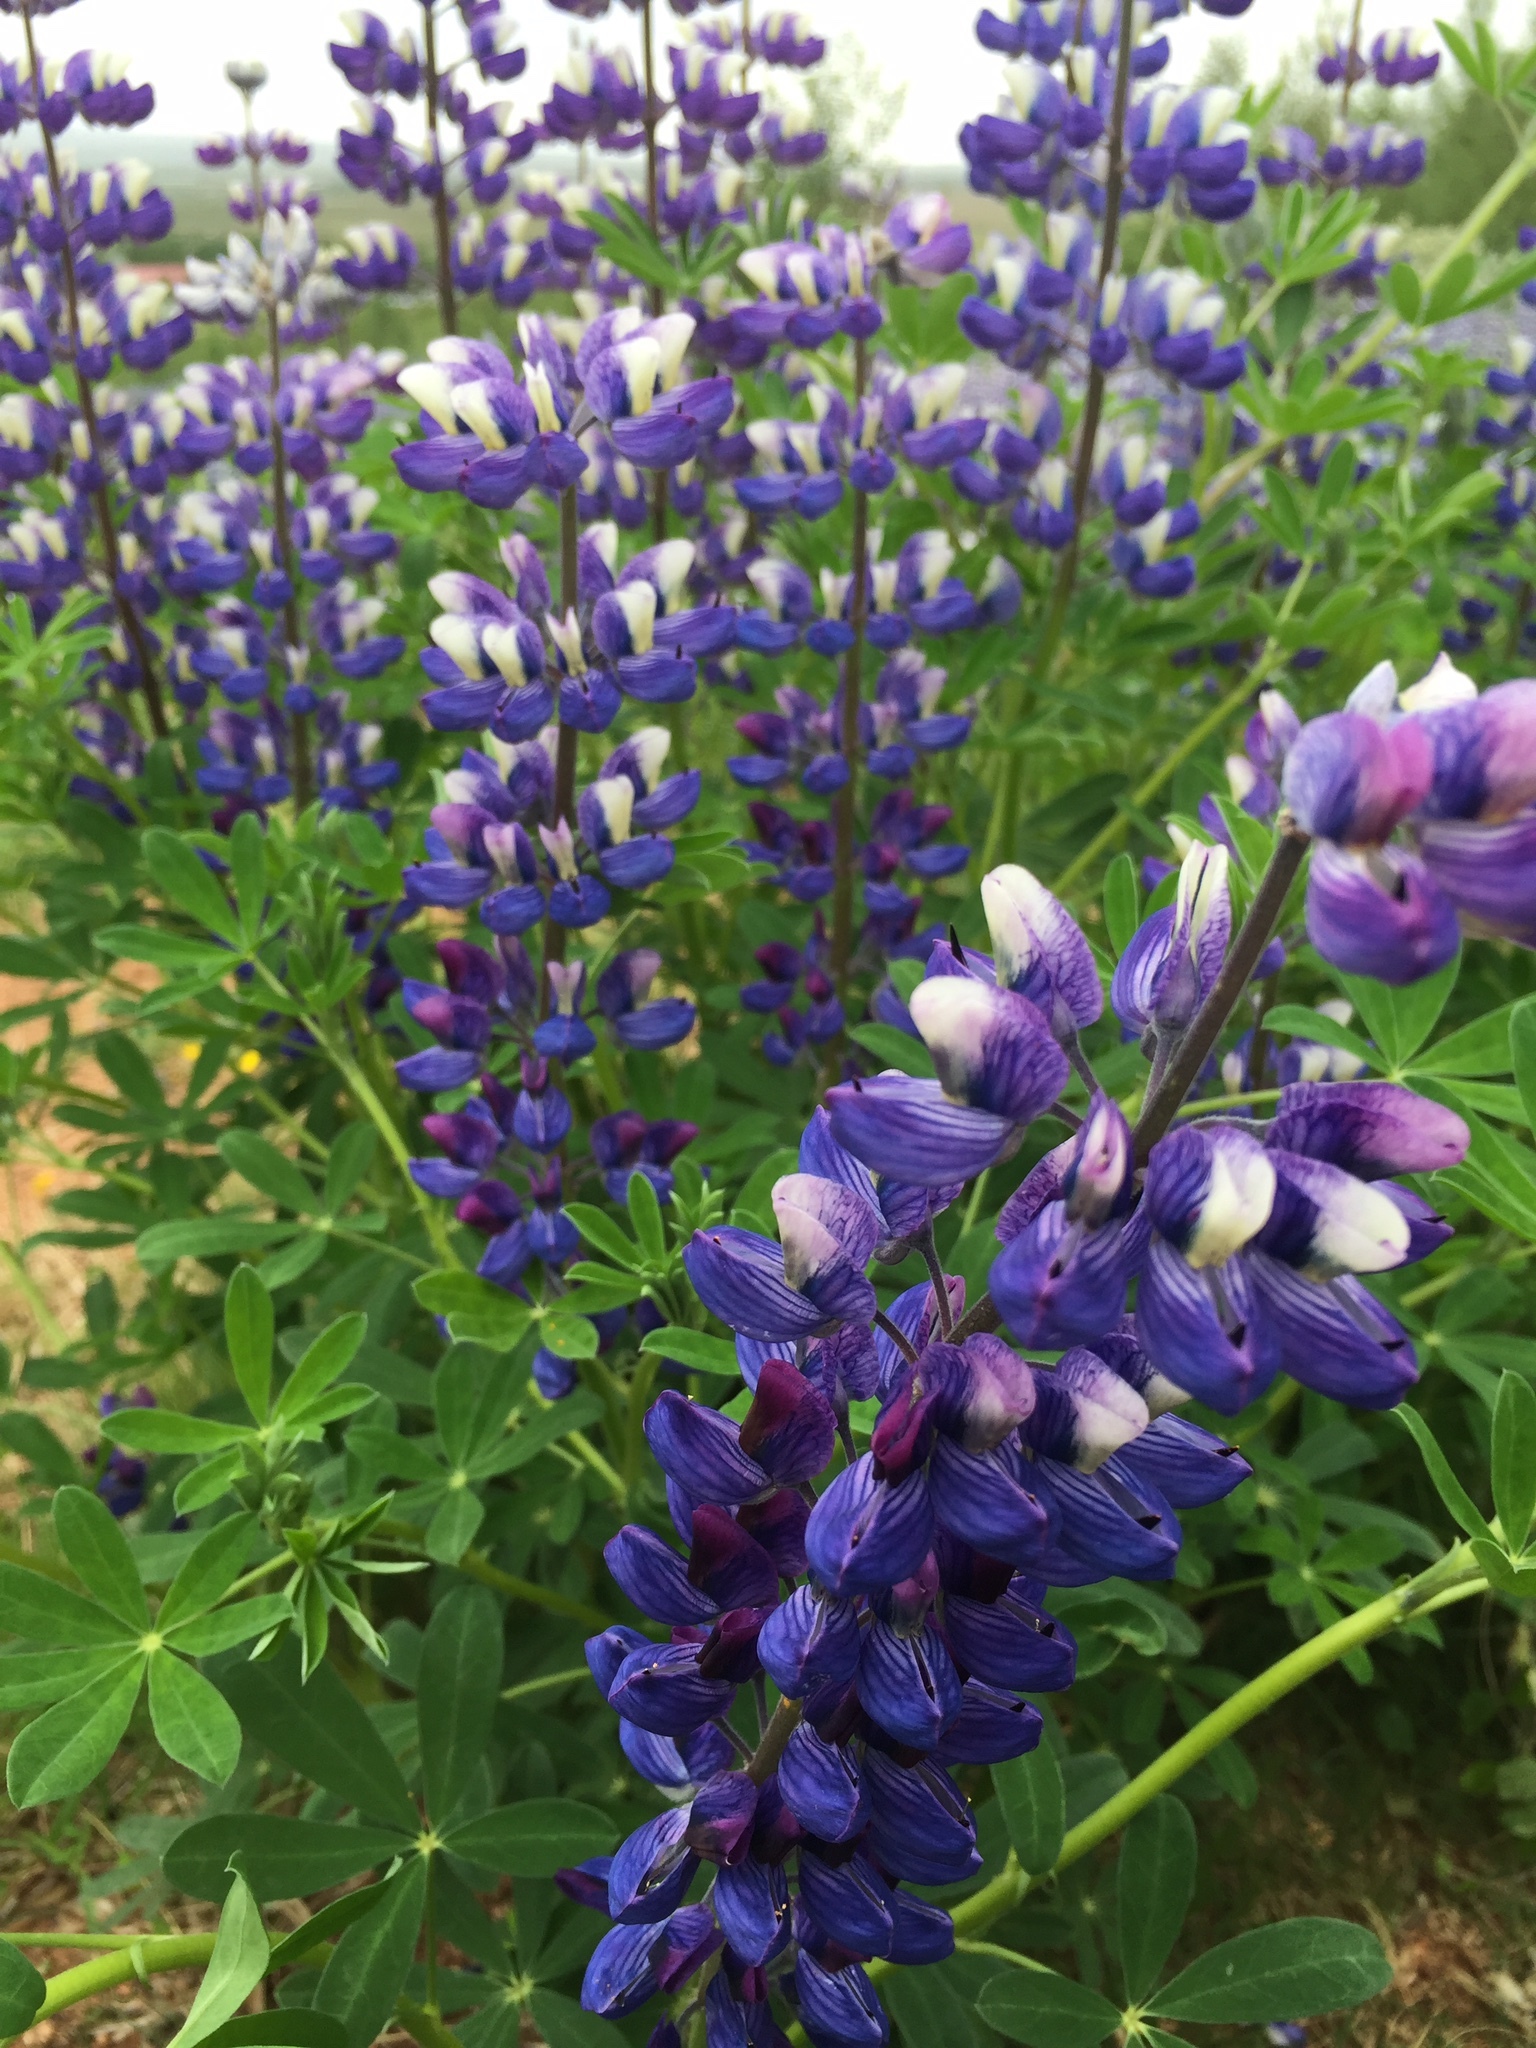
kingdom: Plantae
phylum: Tracheophyta
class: Magnoliopsida
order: Fabales
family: Fabaceae
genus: Lupinus
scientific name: Lupinus nootkatensis
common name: Nootka lupine
